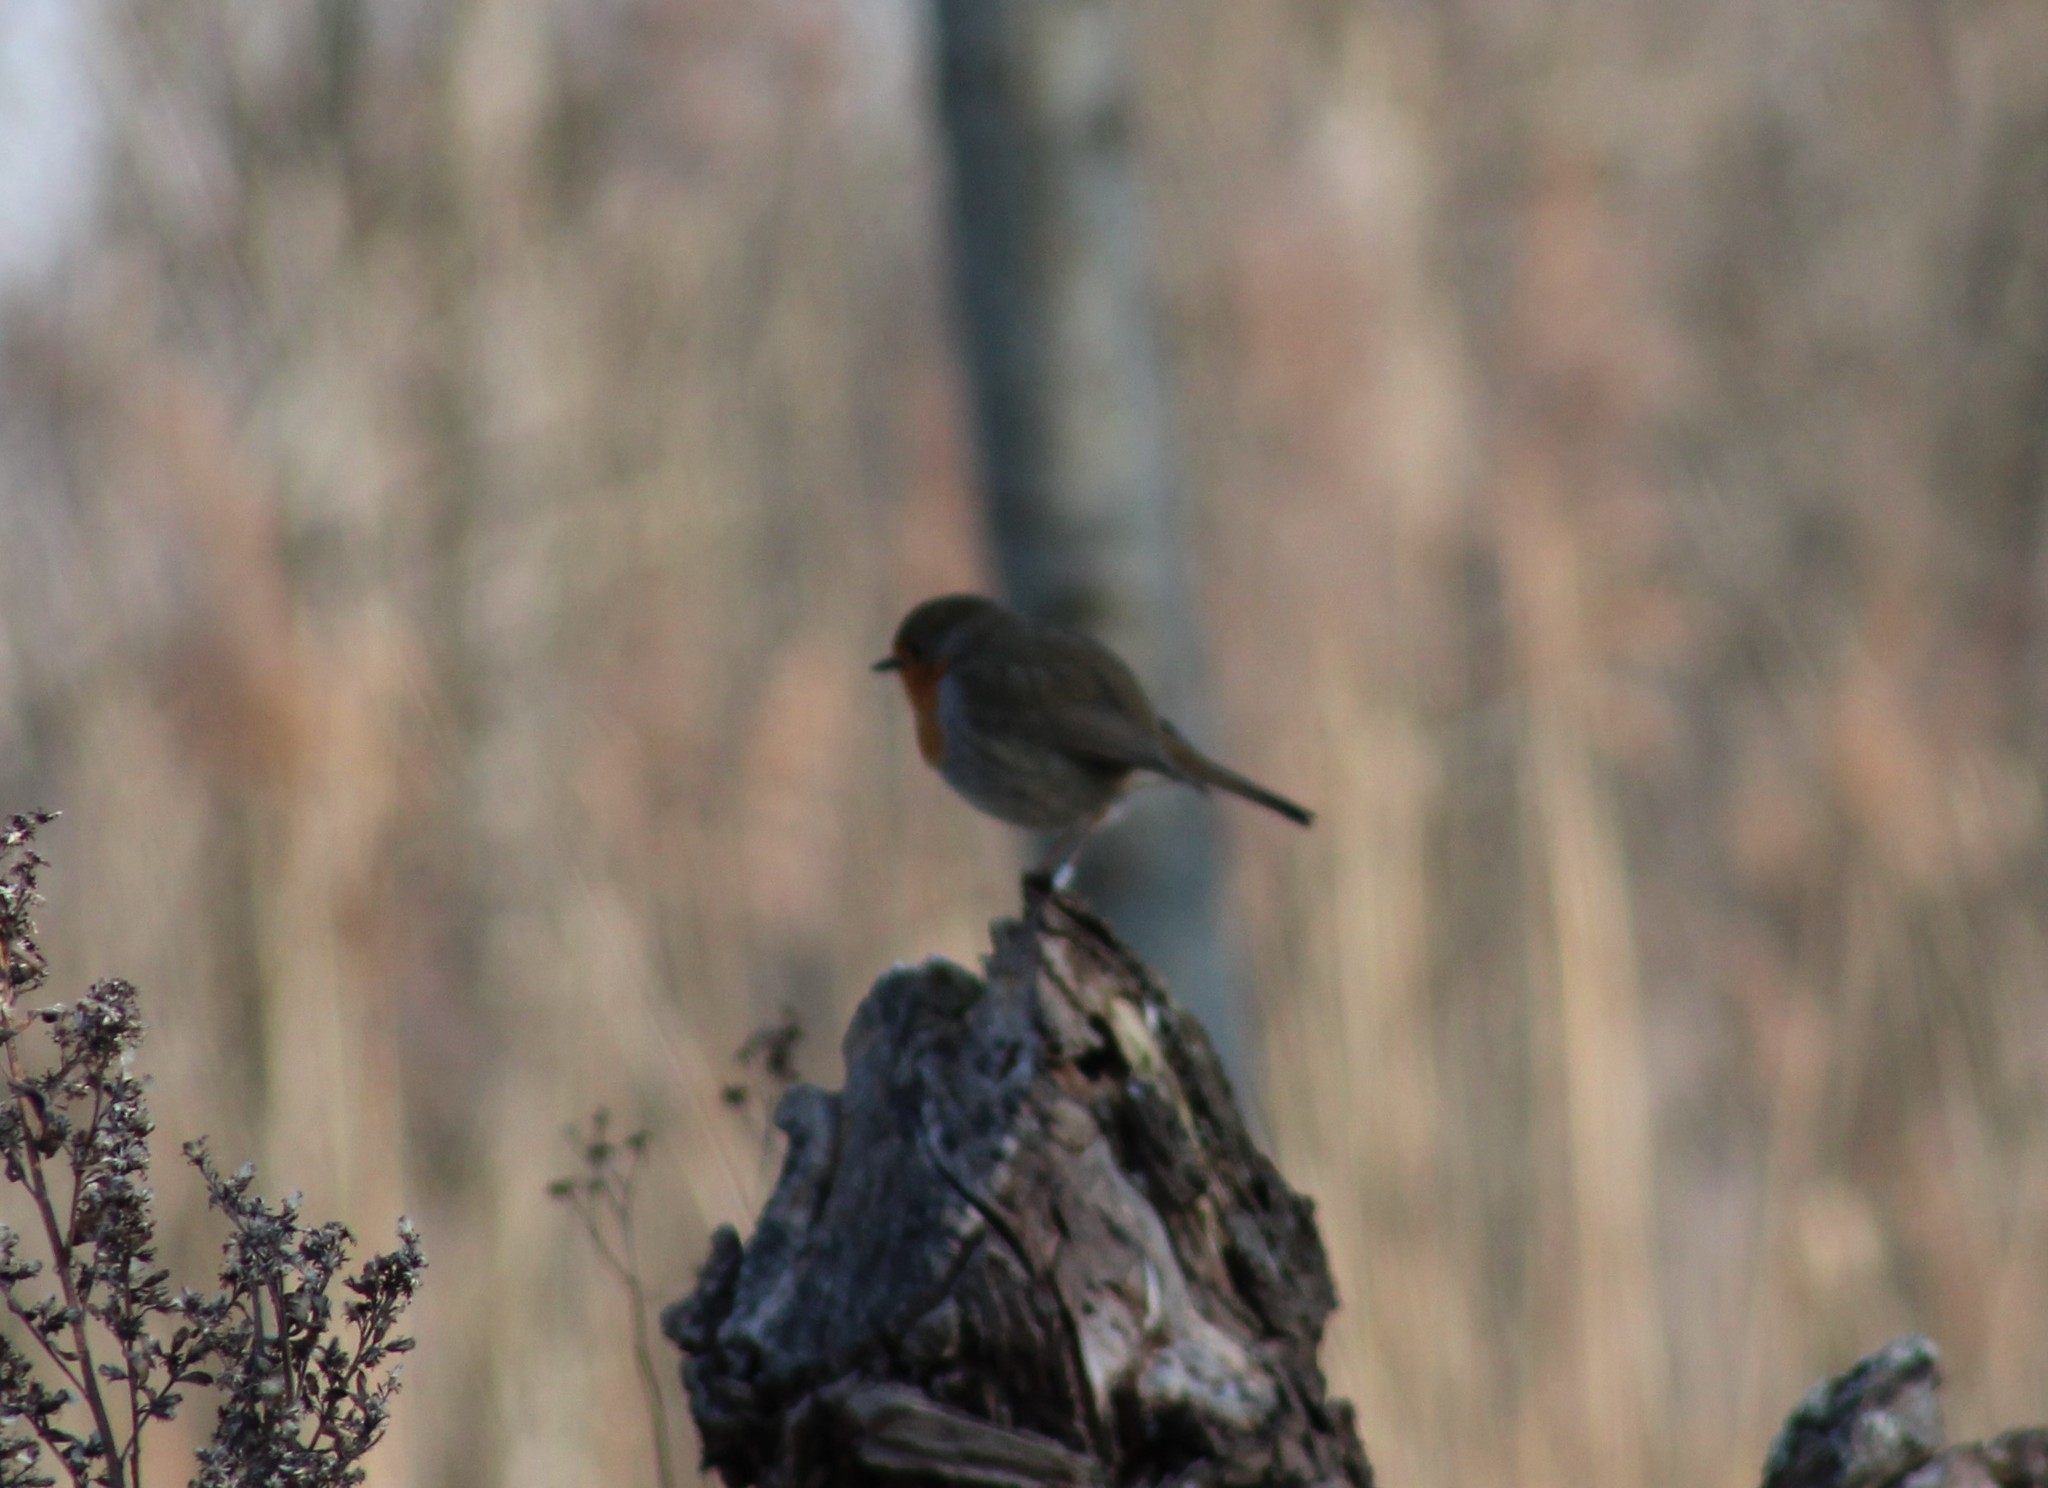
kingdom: Animalia
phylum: Chordata
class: Aves
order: Passeriformes
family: Muscicapidae
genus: Erithacus
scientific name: Erithacus rubecula
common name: European robin
